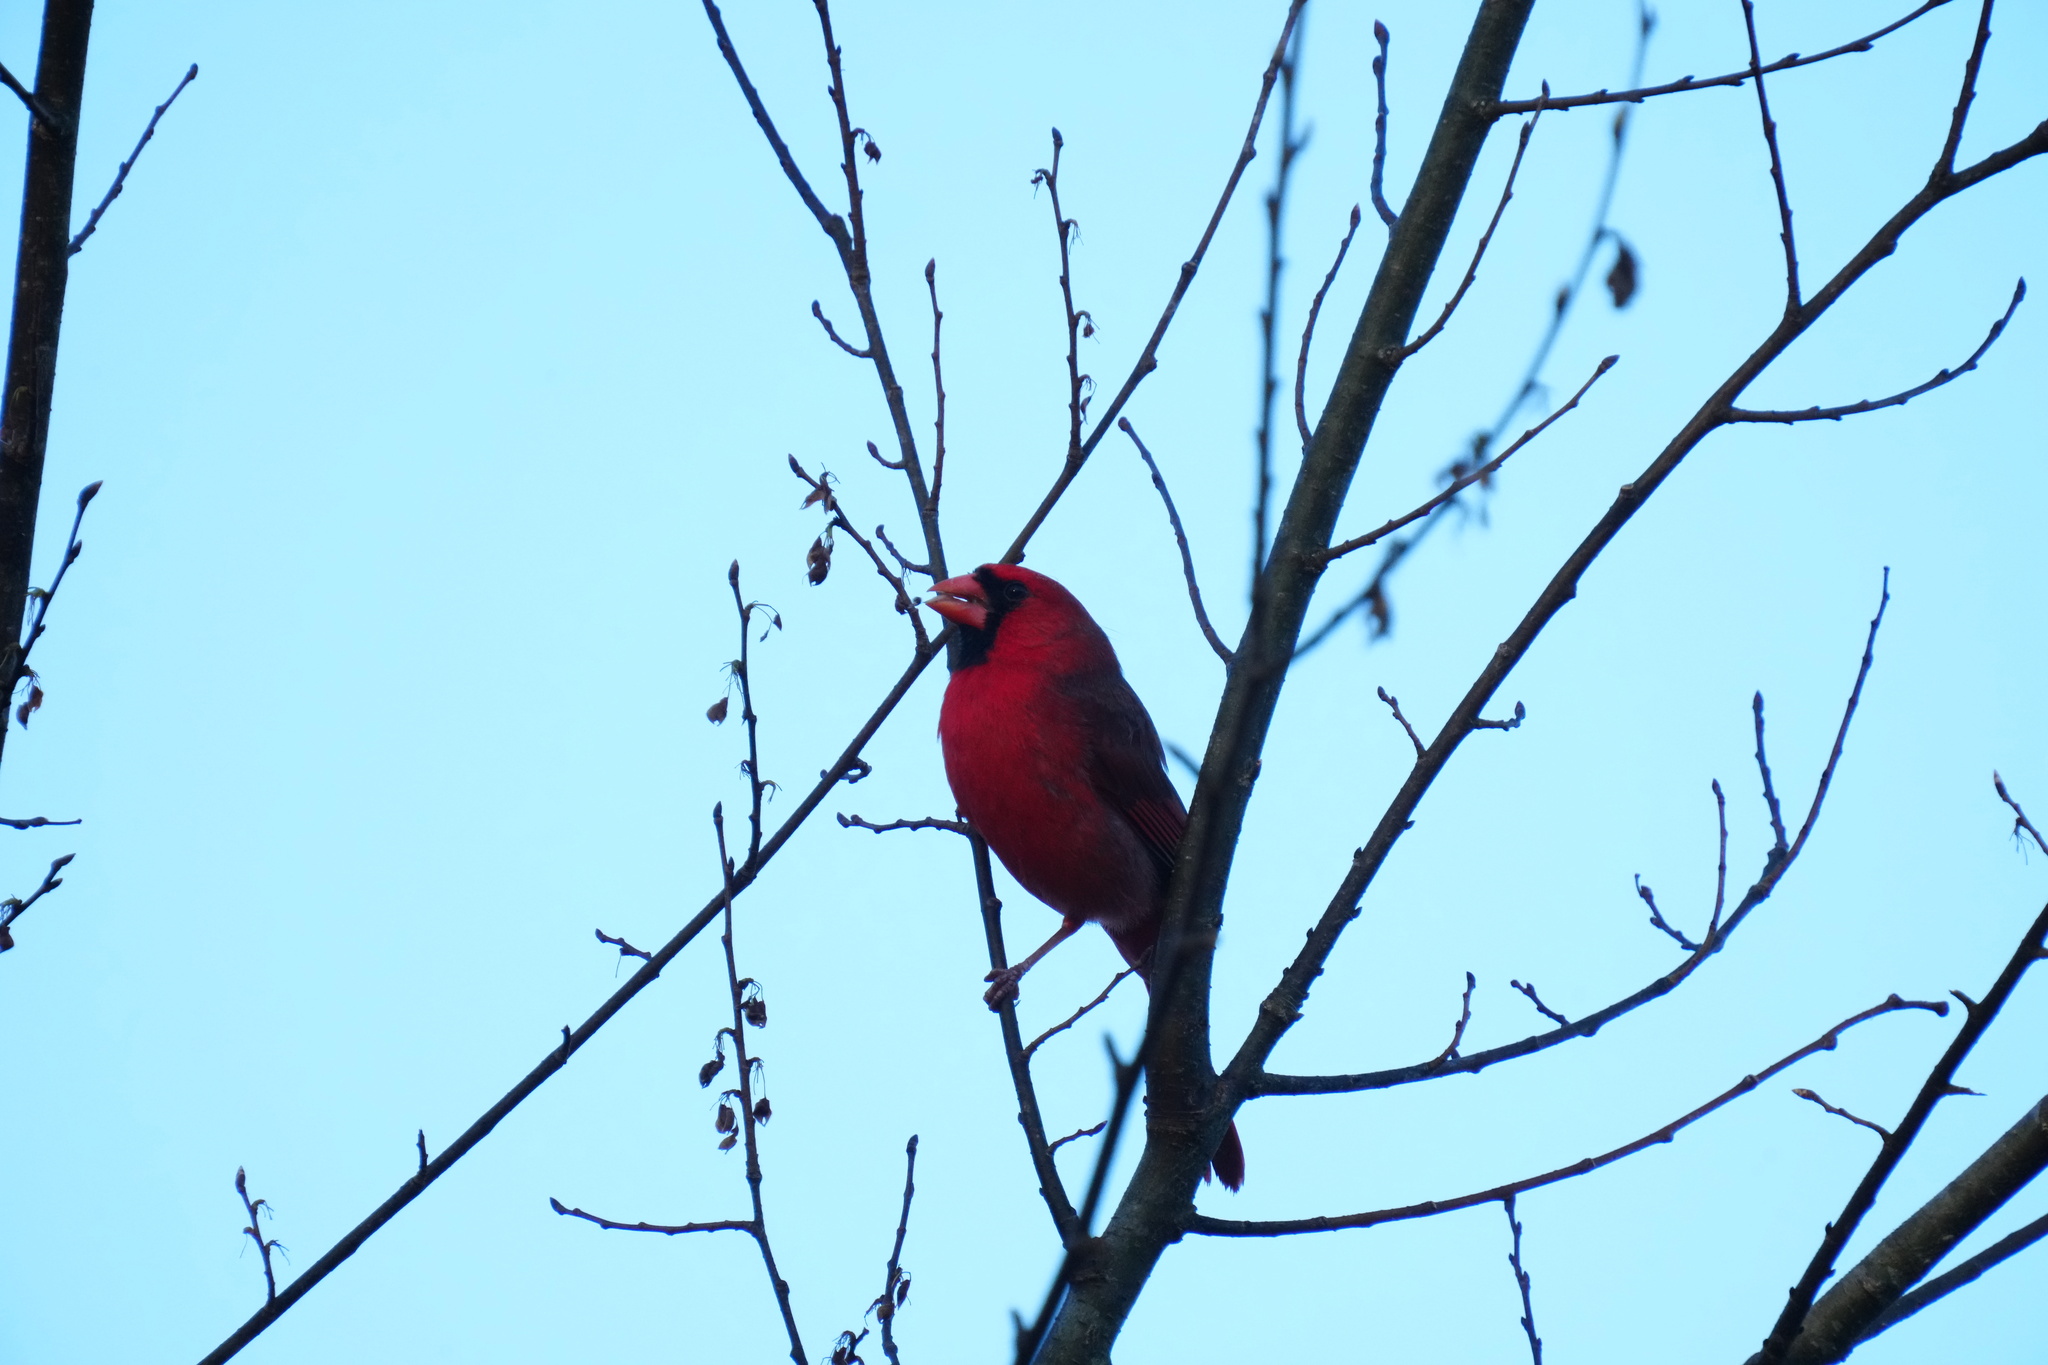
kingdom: Animalia
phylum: Chordata
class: Aves
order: Passeriformes
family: Cardinalidae
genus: Cardinalis
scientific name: Cardinalis cardinalis
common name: Northern cardinal
